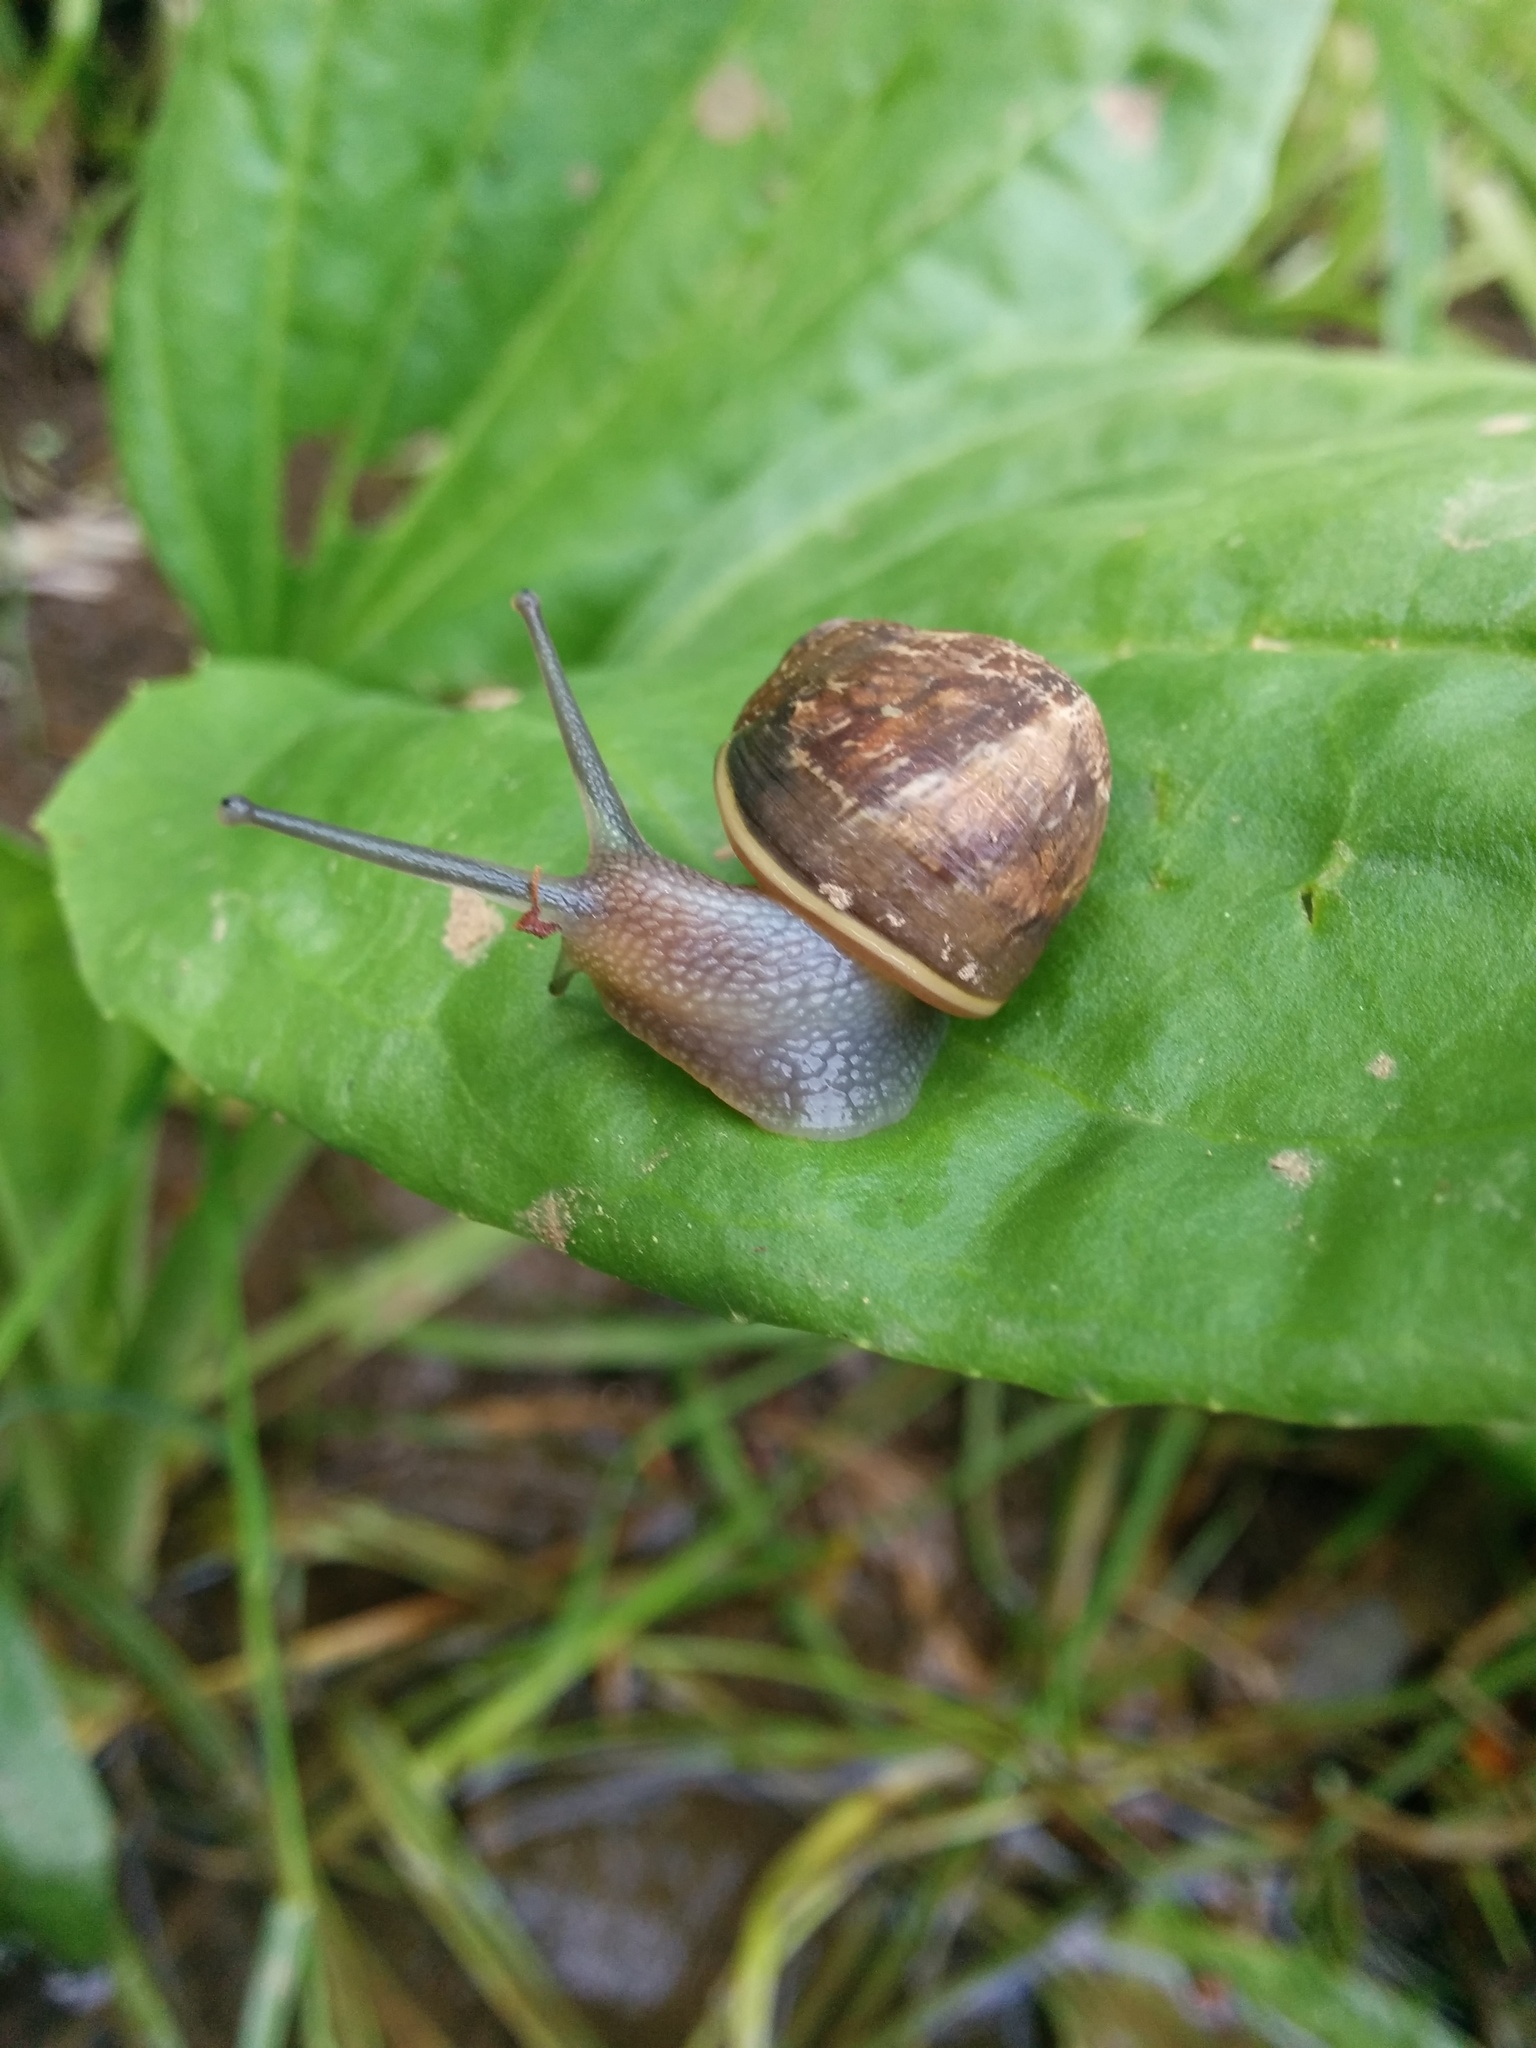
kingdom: Animalia
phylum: Mollusca
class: Gastropoda
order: Stylommatophora
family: Helicidae
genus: Cornu
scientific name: Cornu aspersum
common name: Brown garden snail
